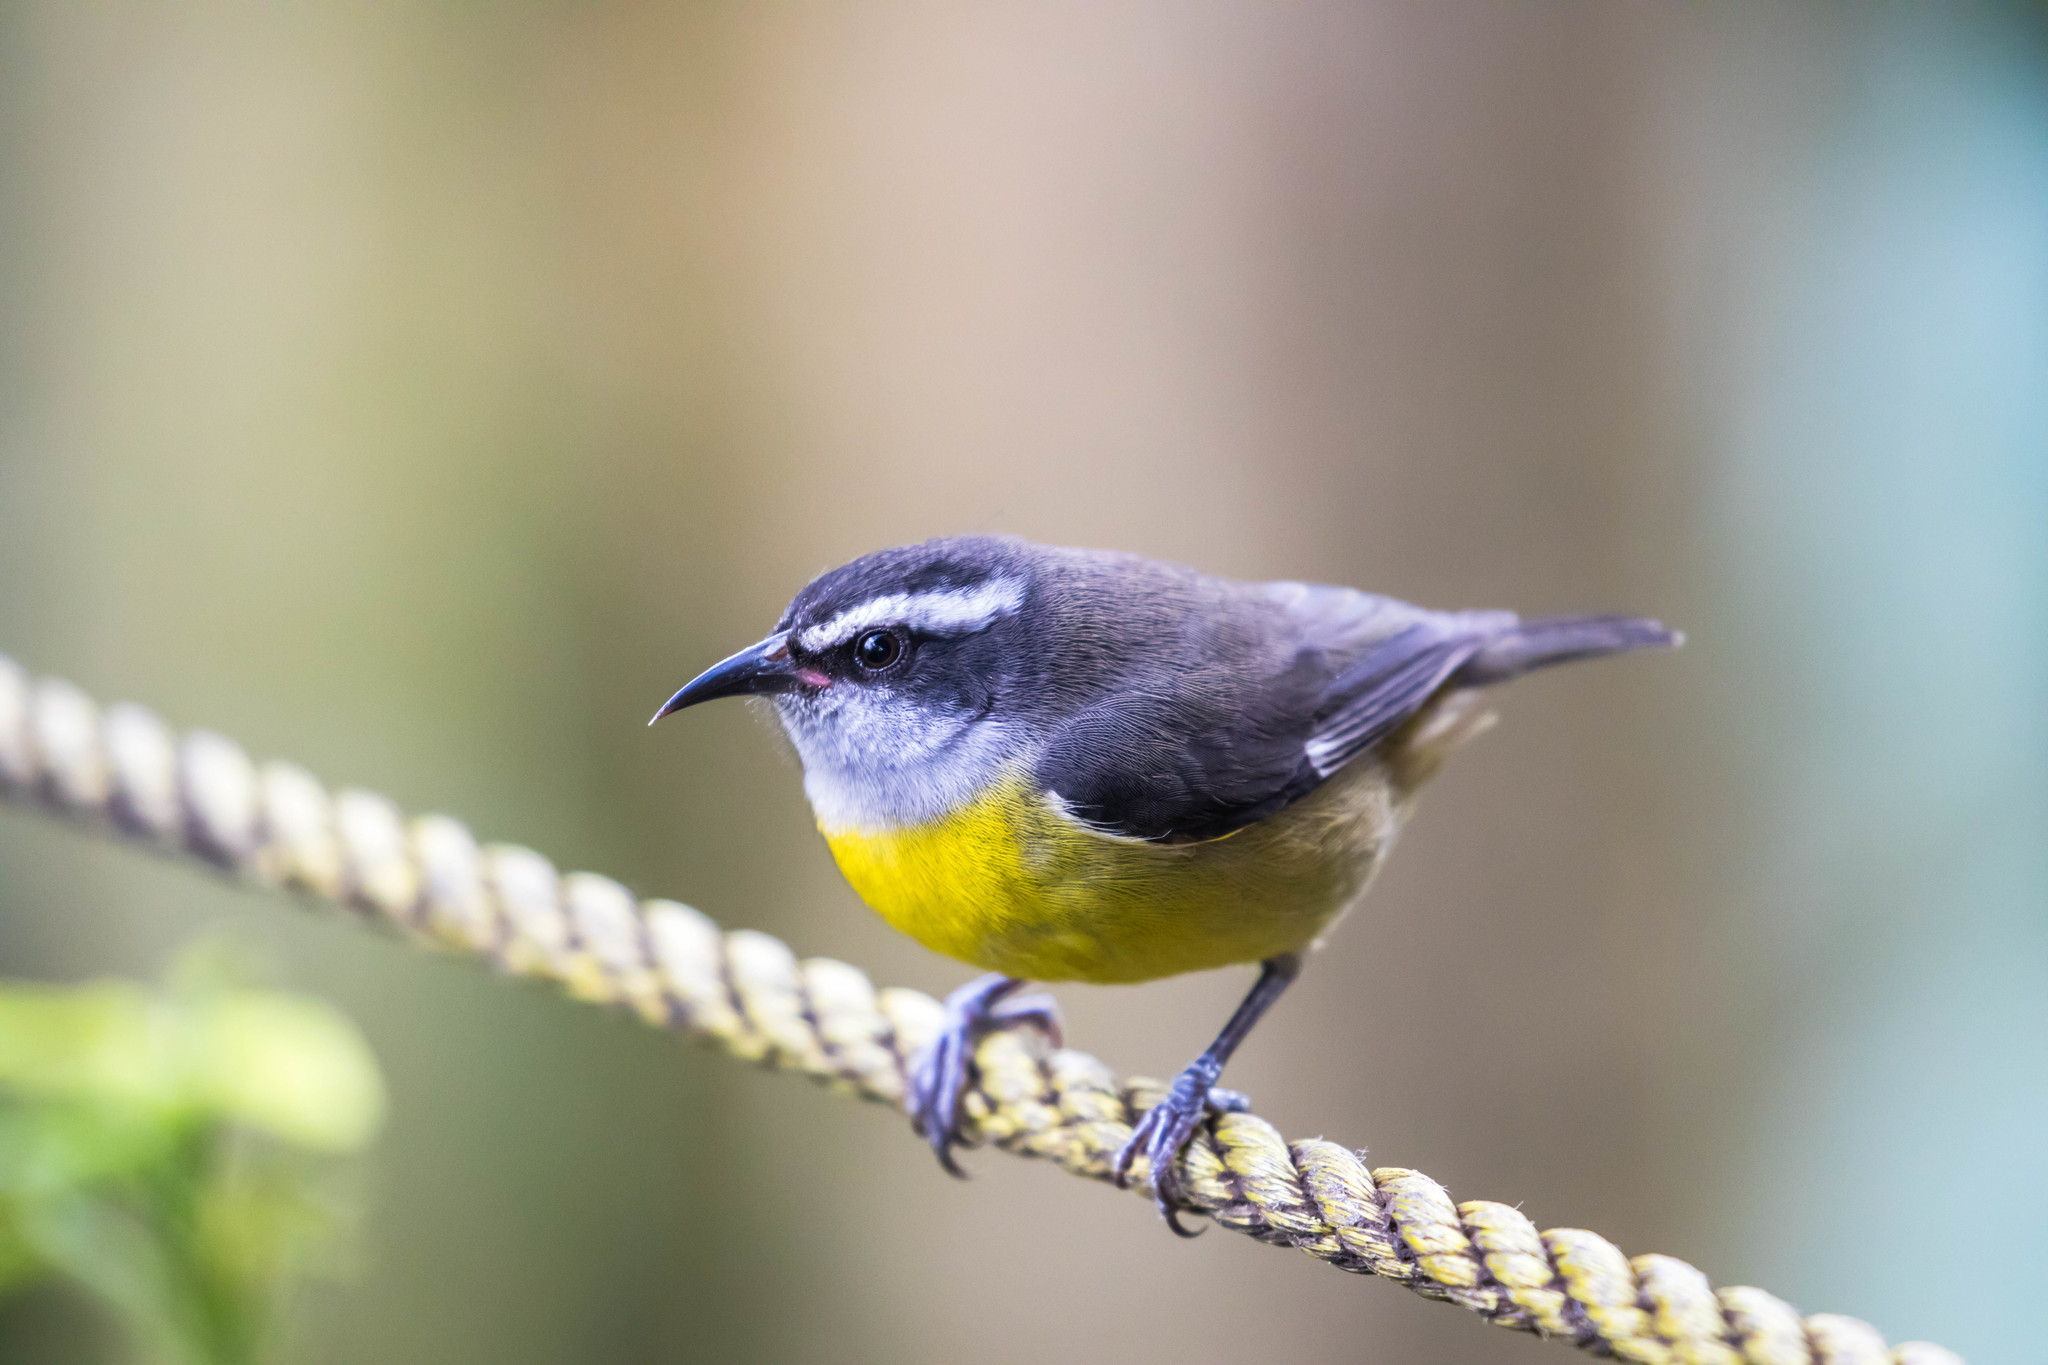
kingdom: Animalia
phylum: Chordata
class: Aves
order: Passeriformes
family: Thraupidae
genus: Coereba
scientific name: Coereba flaveola
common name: Bananaquit
